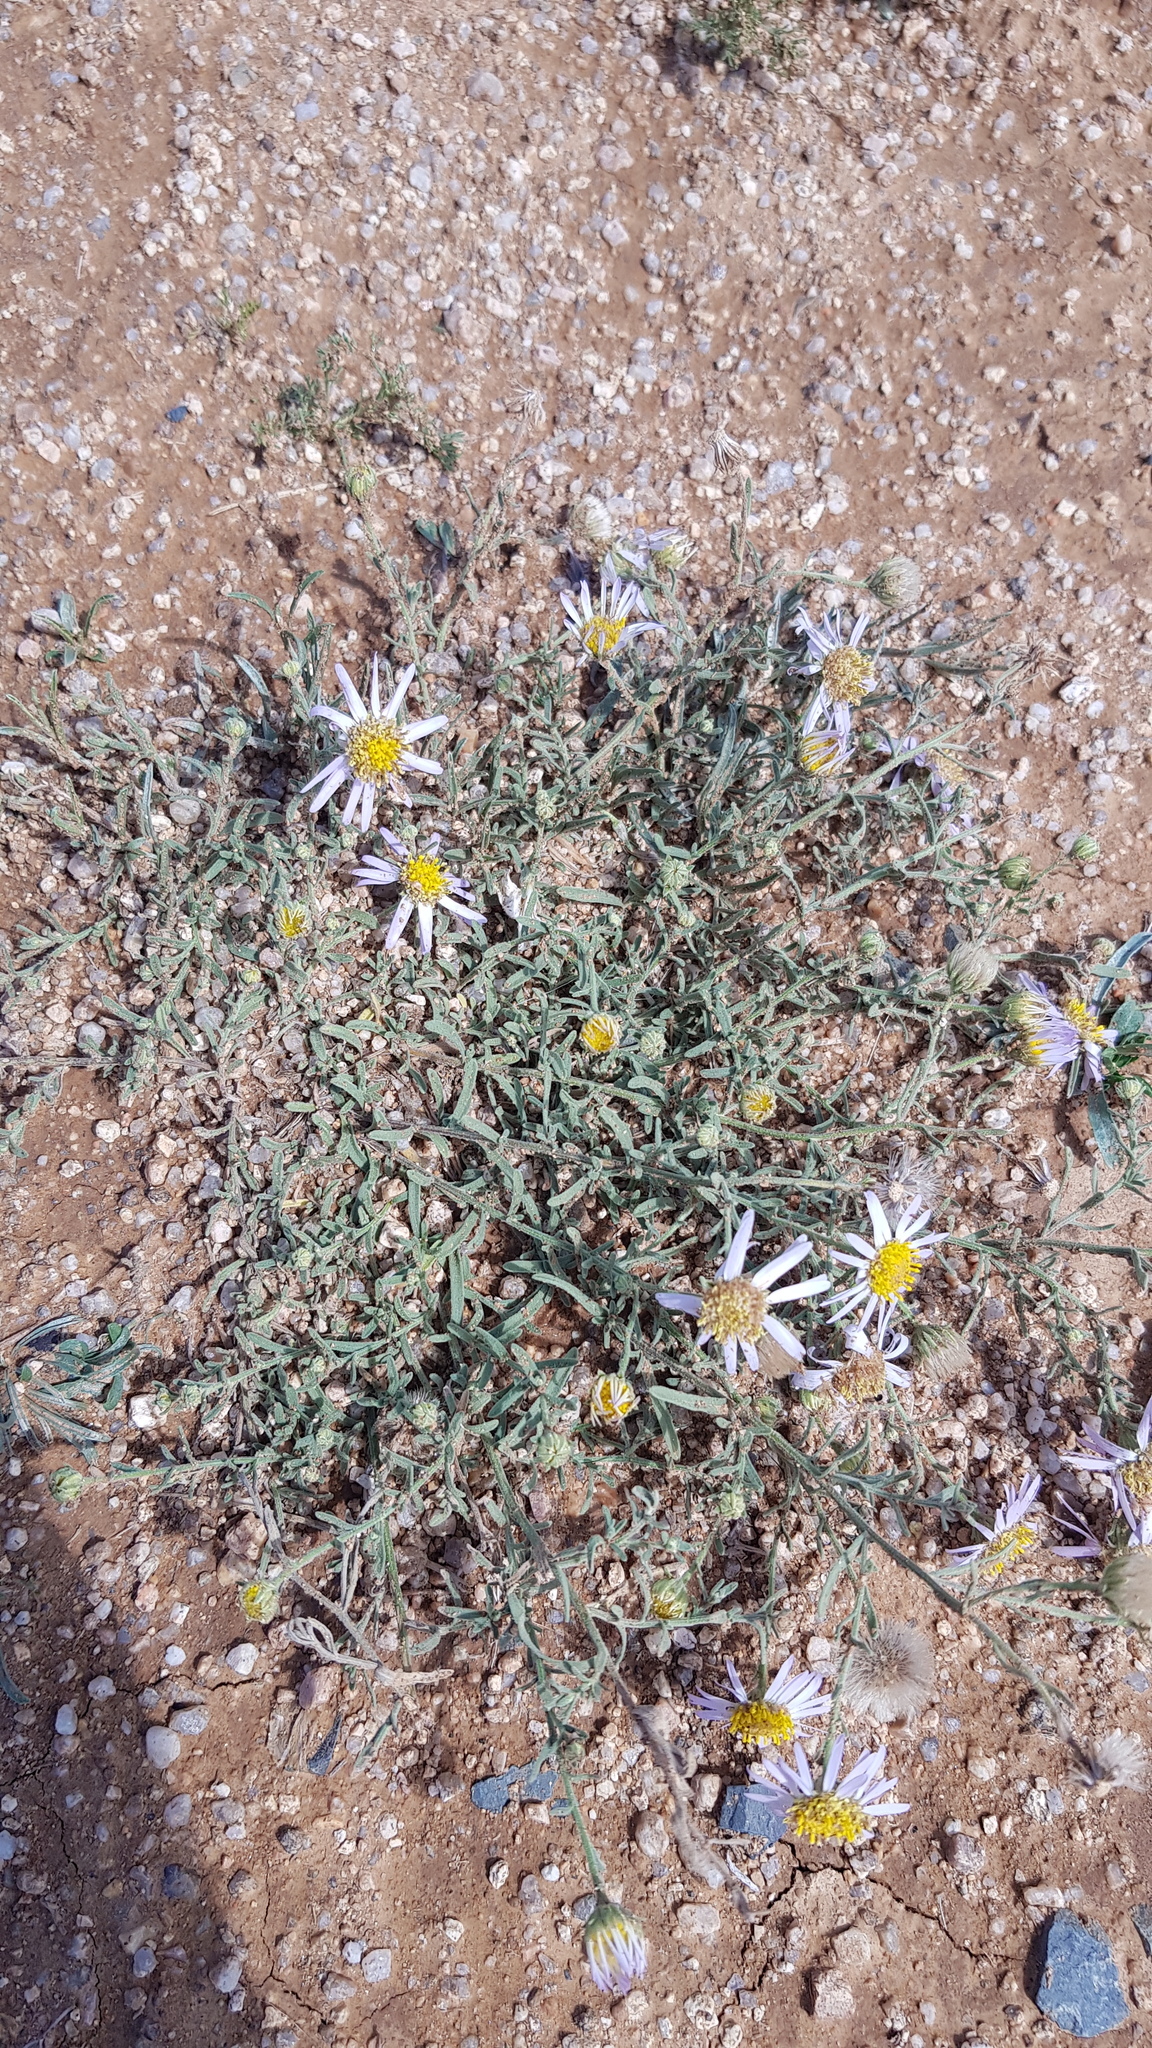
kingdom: Plantae
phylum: Tracheophyta
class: Magnoliopsida
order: Asterales
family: Asteraceae
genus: Heteropappus
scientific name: Heteropappus altaicus
